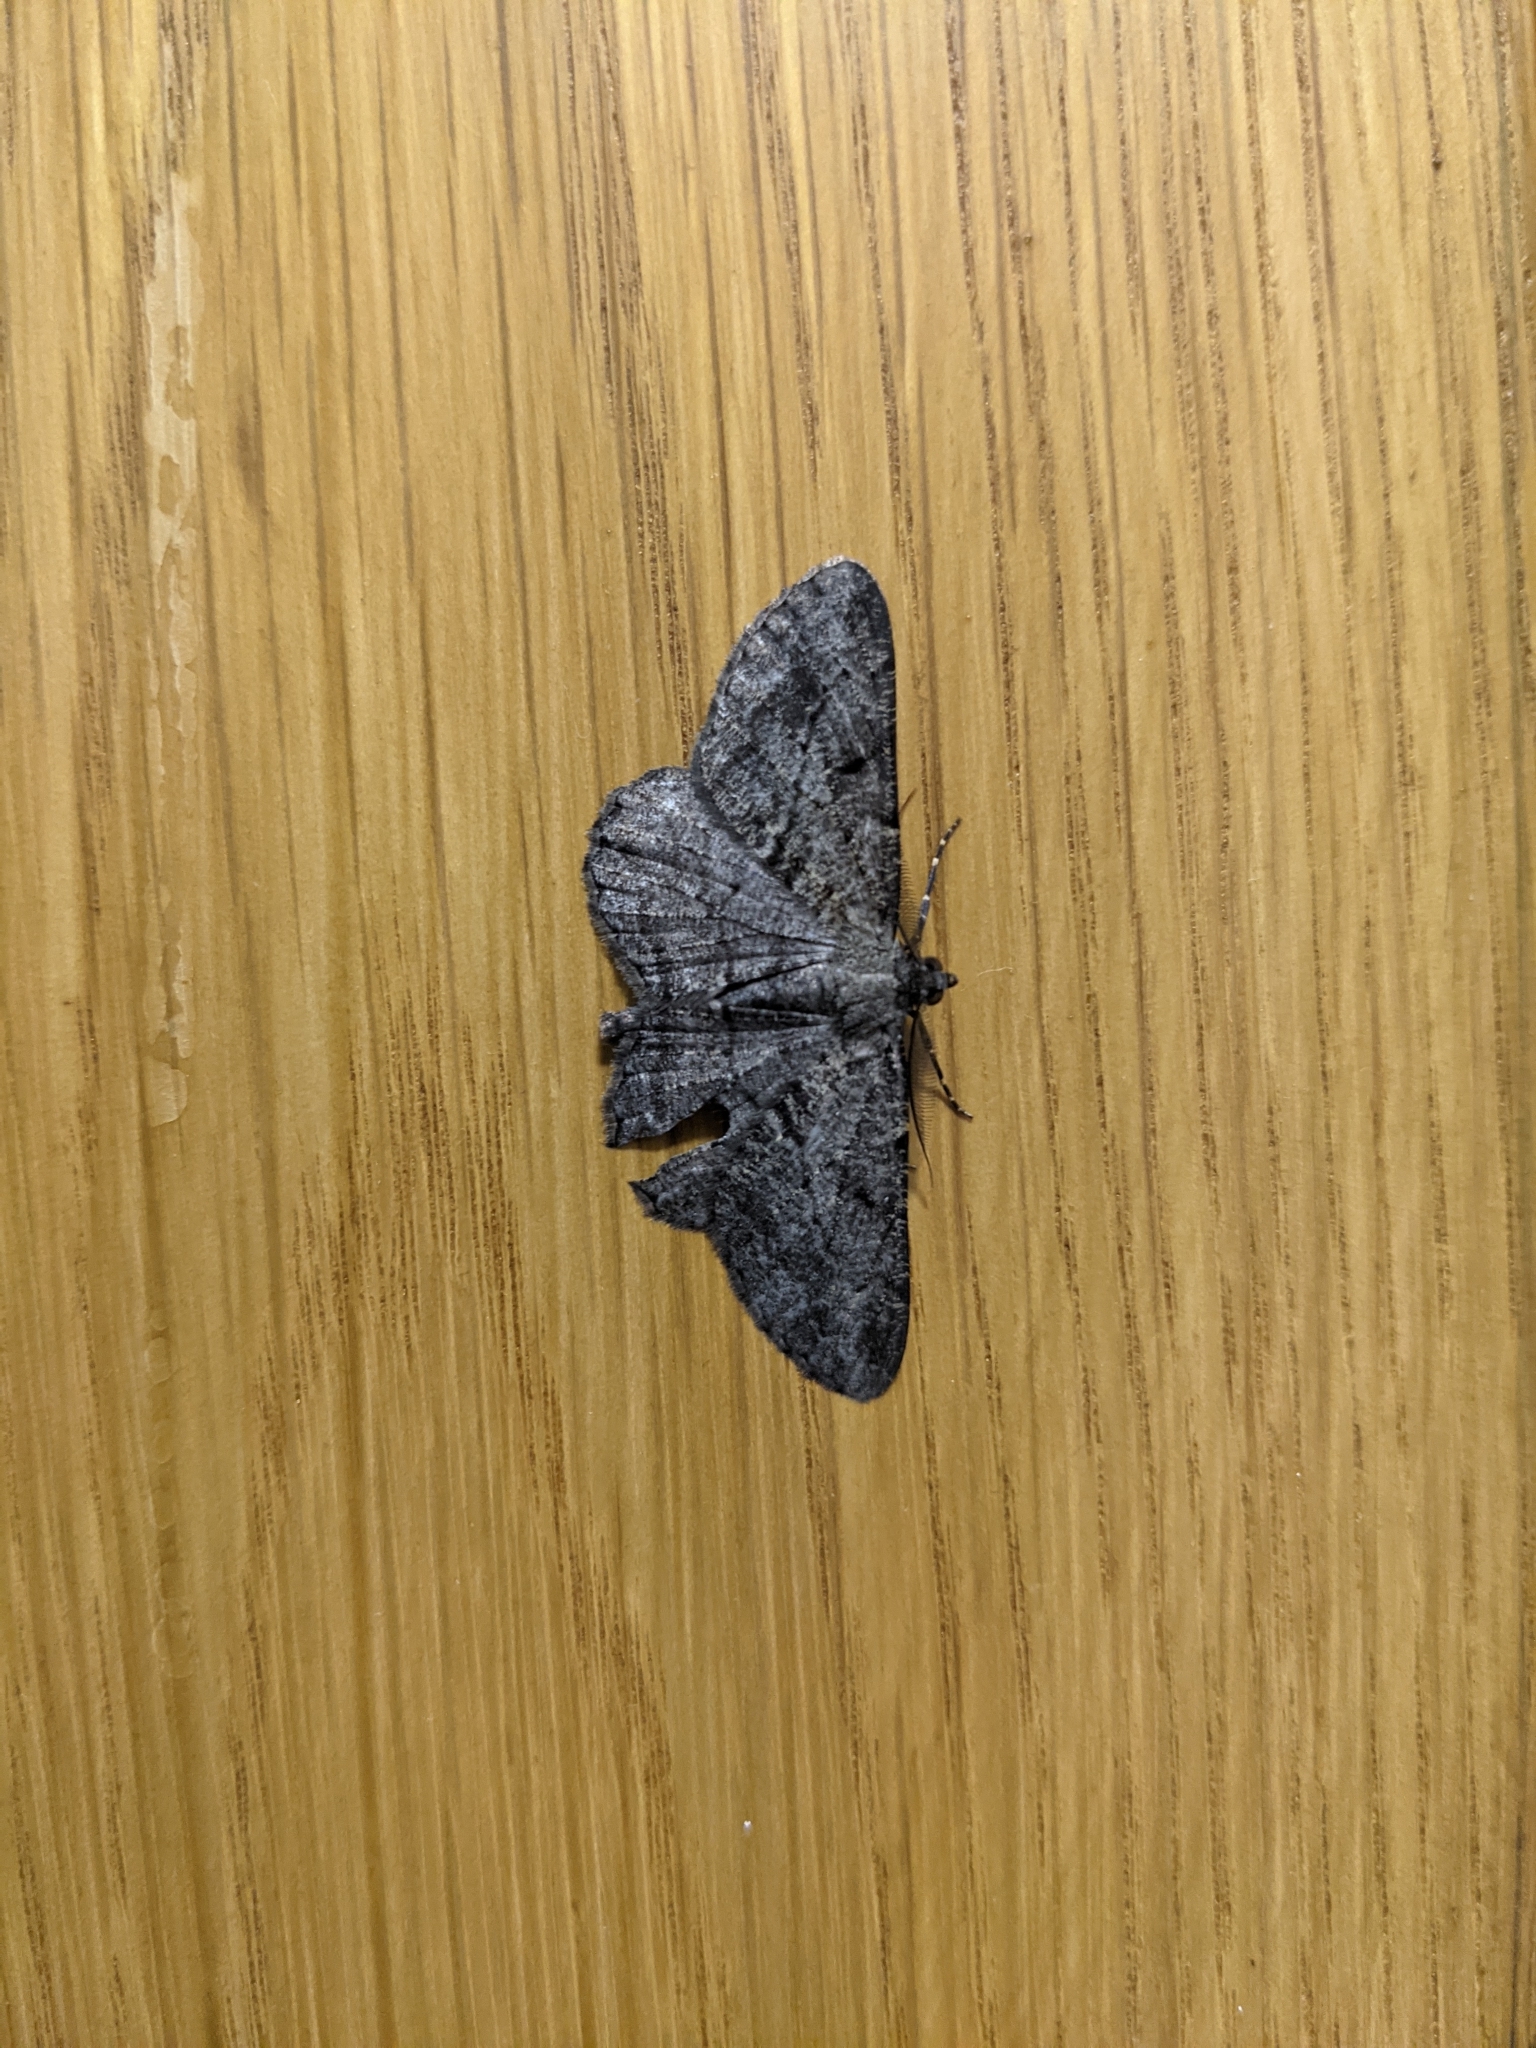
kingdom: Animalia
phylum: Arthropoda
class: Insecta
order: Lepidoptera
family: Geometridae
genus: Peribatodes
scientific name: Peribatodes rhomboidaria
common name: Willow beauty
